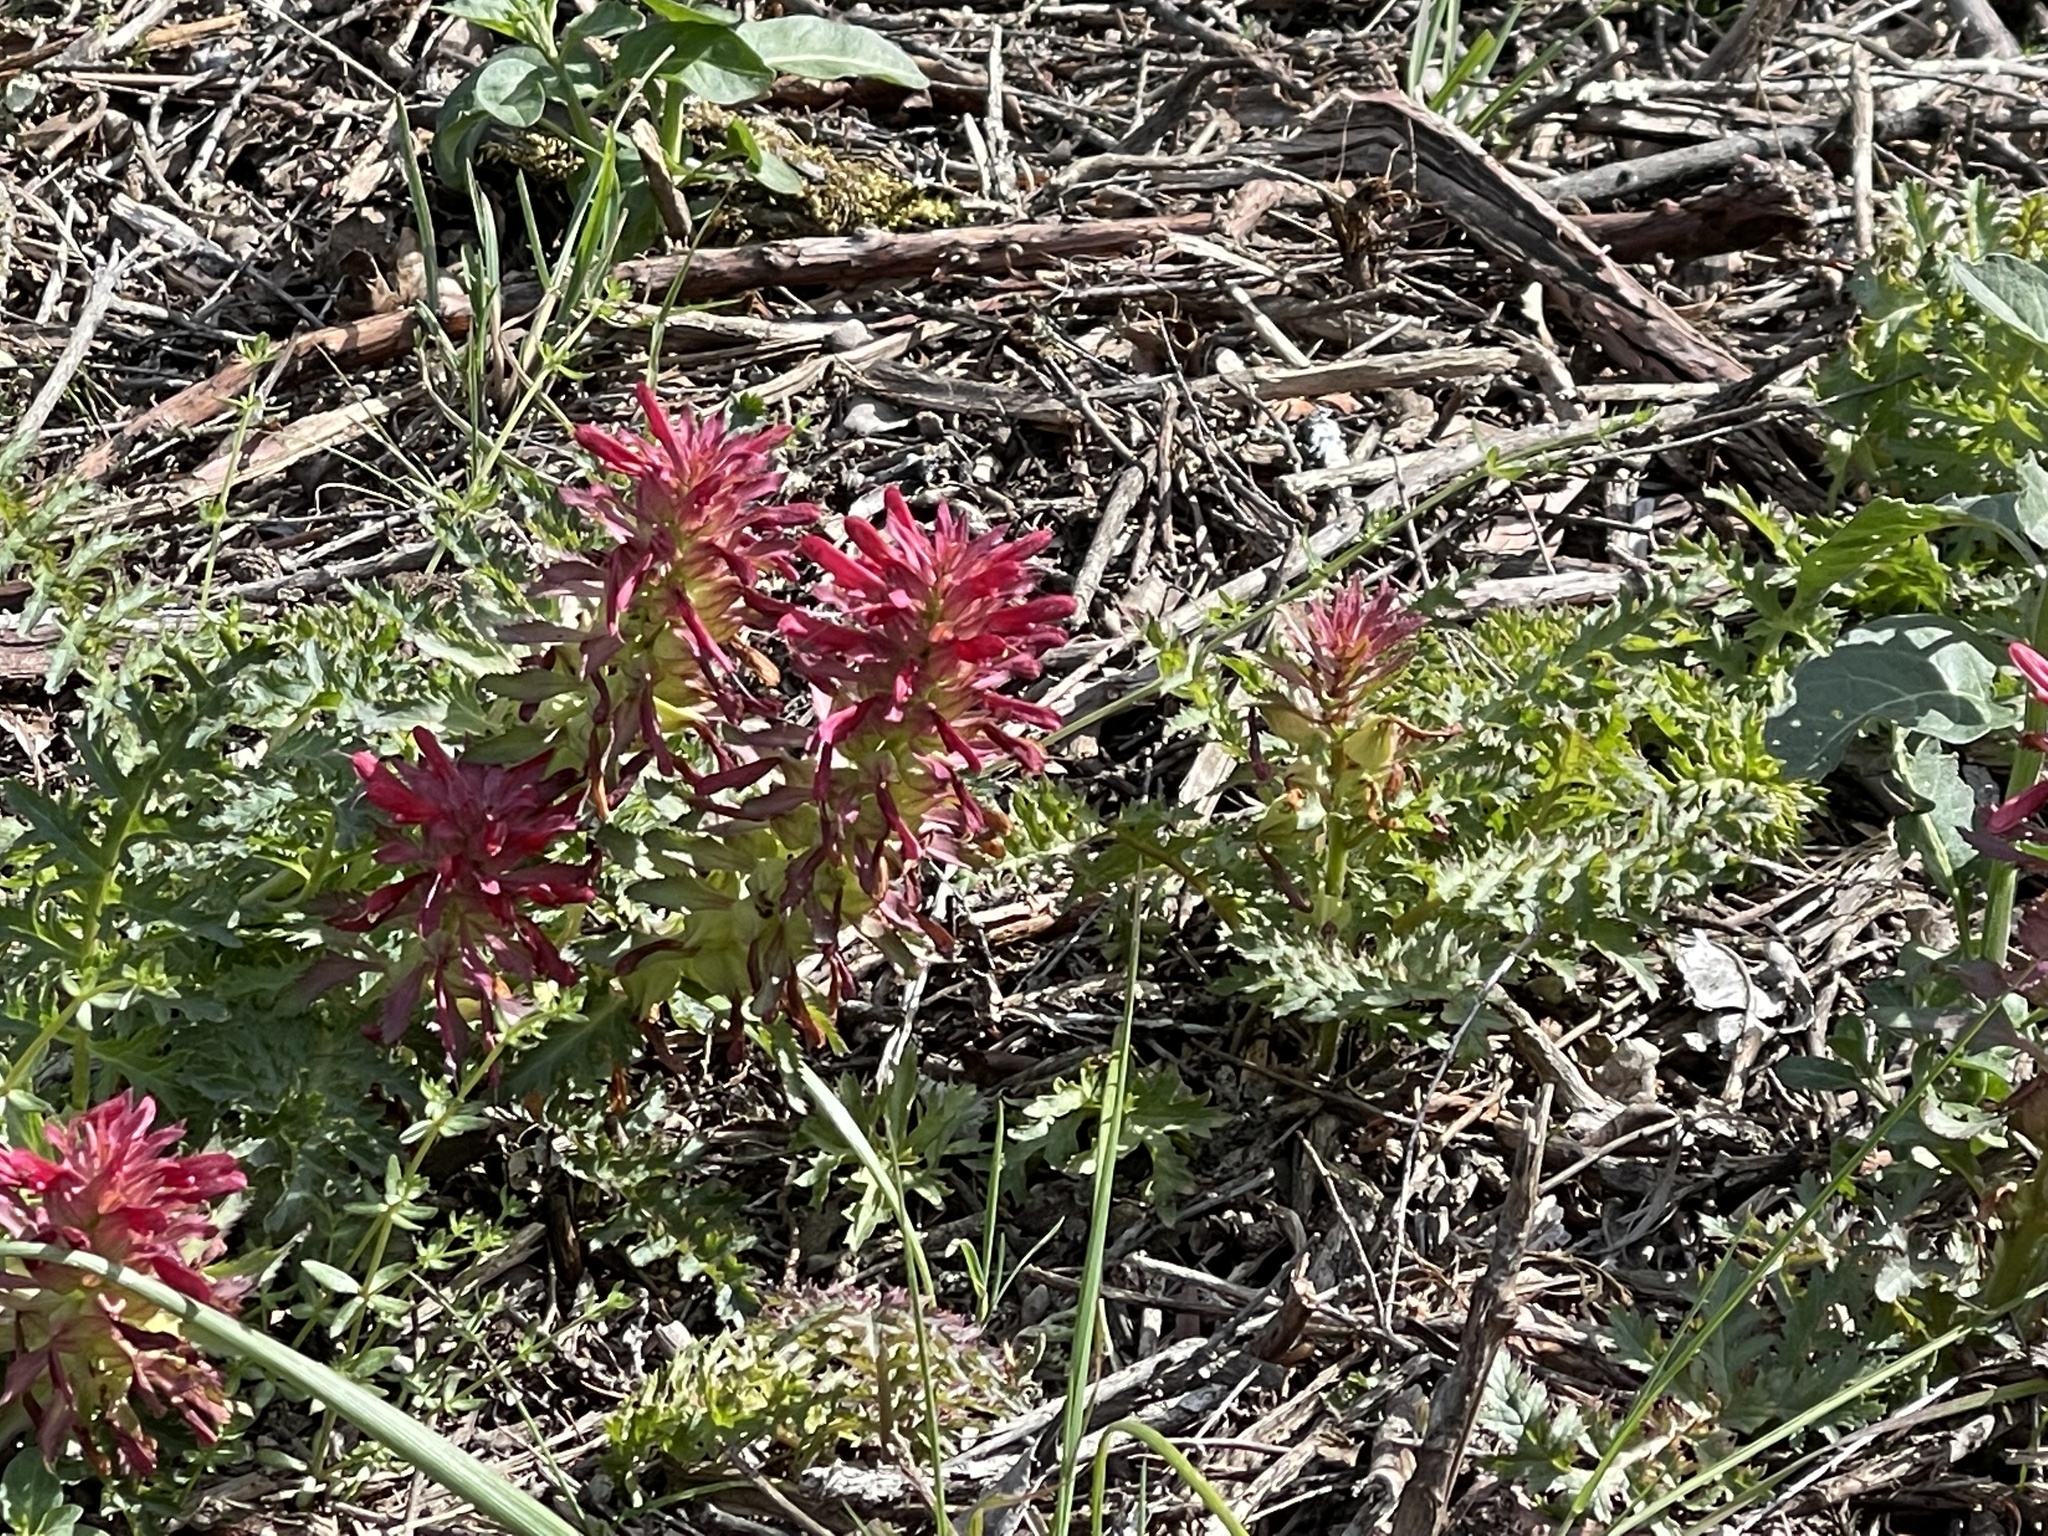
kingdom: Plantae
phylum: Tracheophyta
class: Magnoliopsida
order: Lamiales
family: Orobanchaceae
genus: Pedicularis
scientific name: Pedicularis densiflora
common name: Indian warrior
